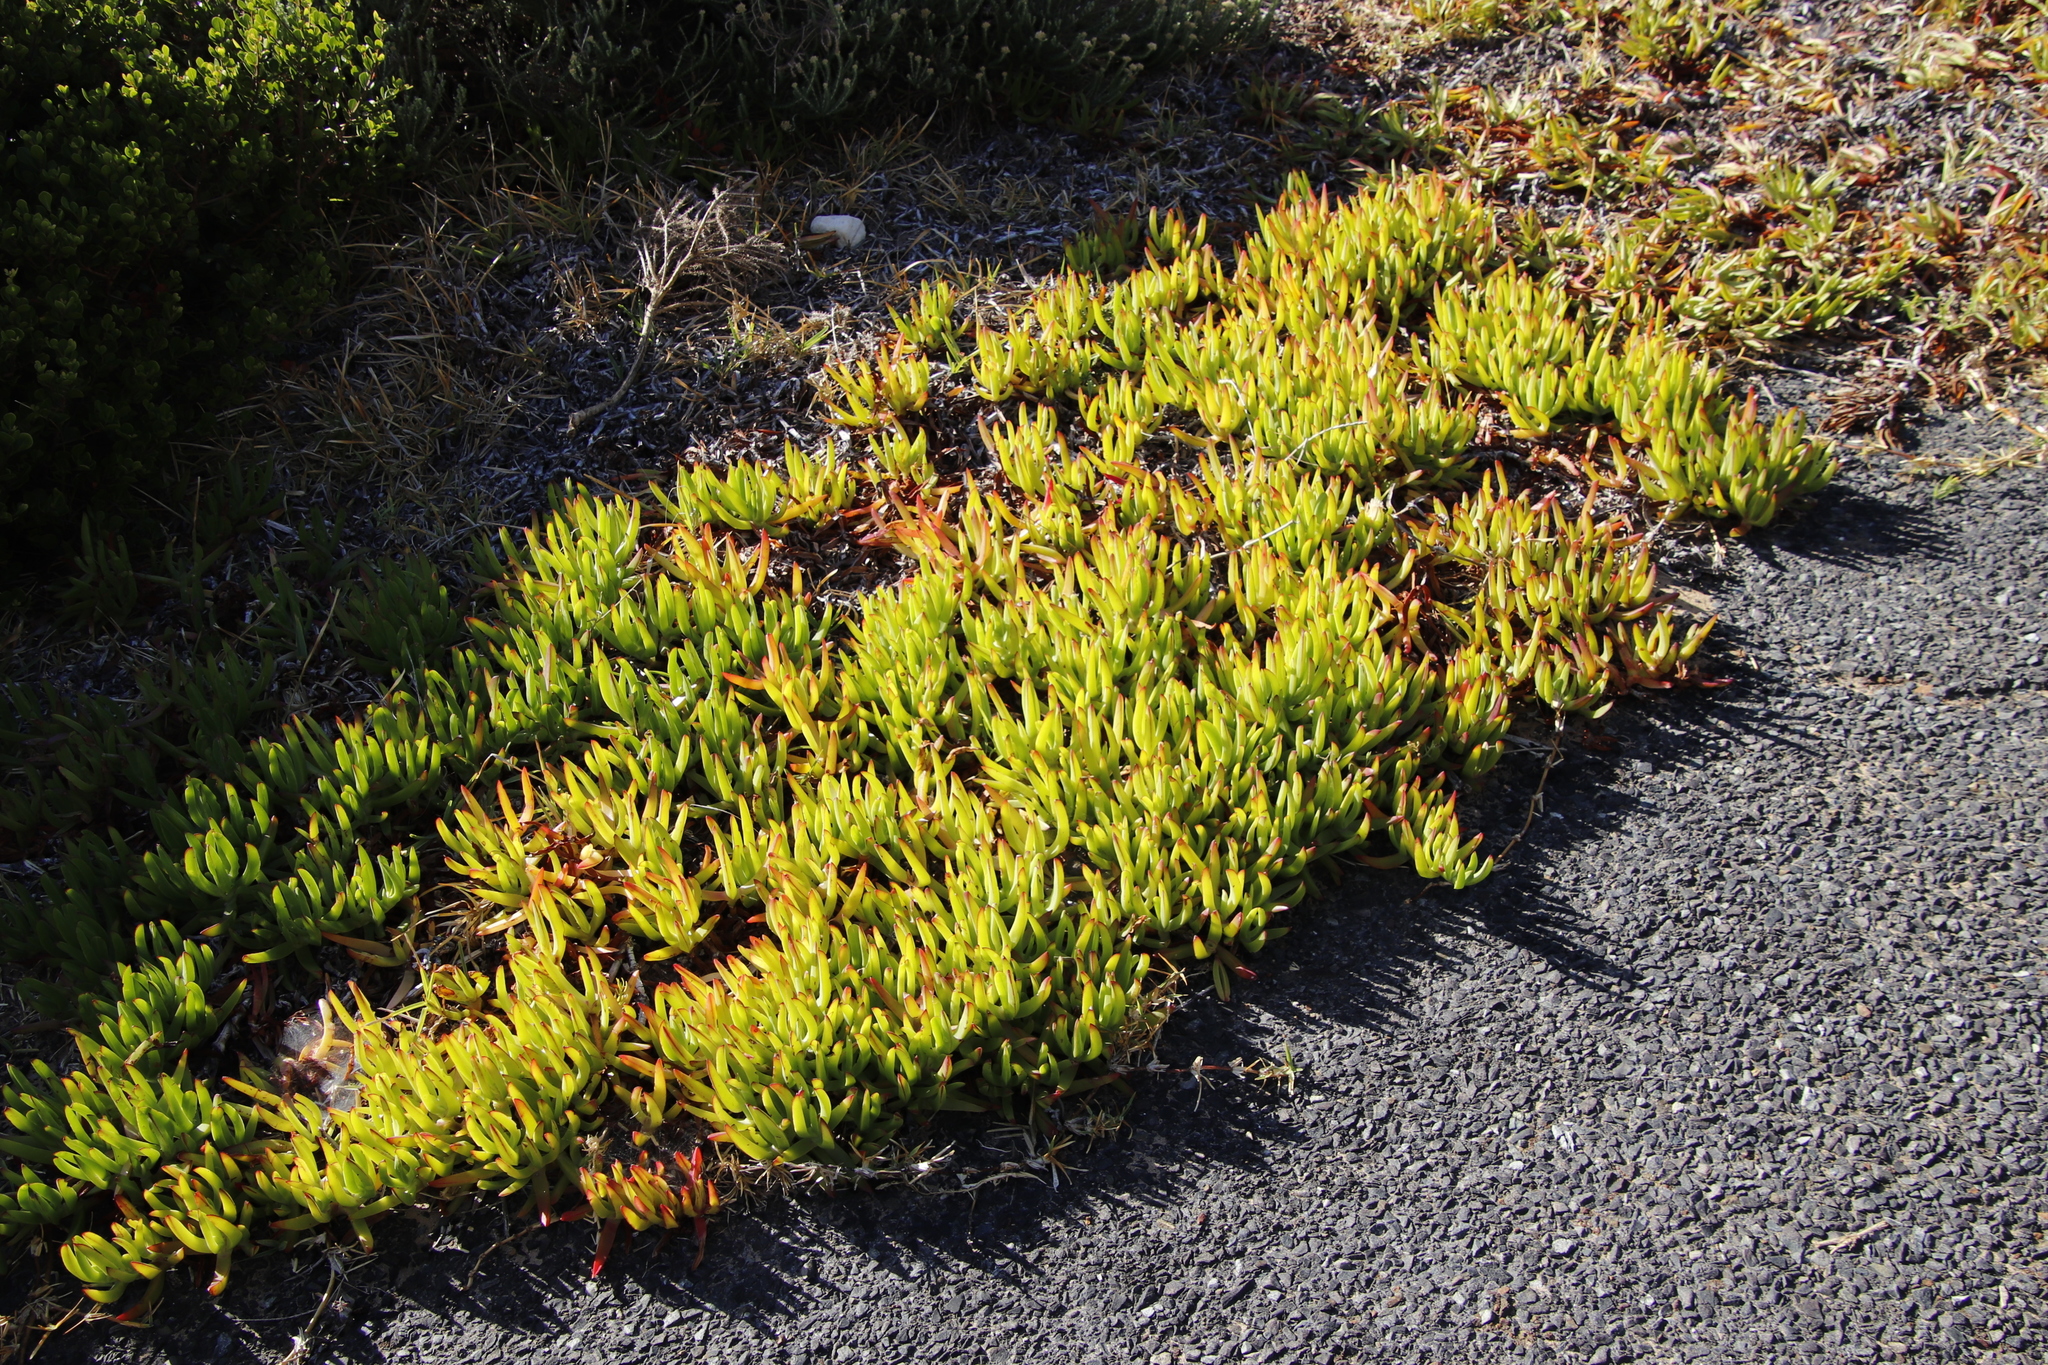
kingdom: Plantae
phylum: Tracheophyta
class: Magnoliopsida
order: Caryophyllales
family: Aizoaceae
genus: Carpobrotus
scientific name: Carpobrotus edulis
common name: Hottentot-fig
